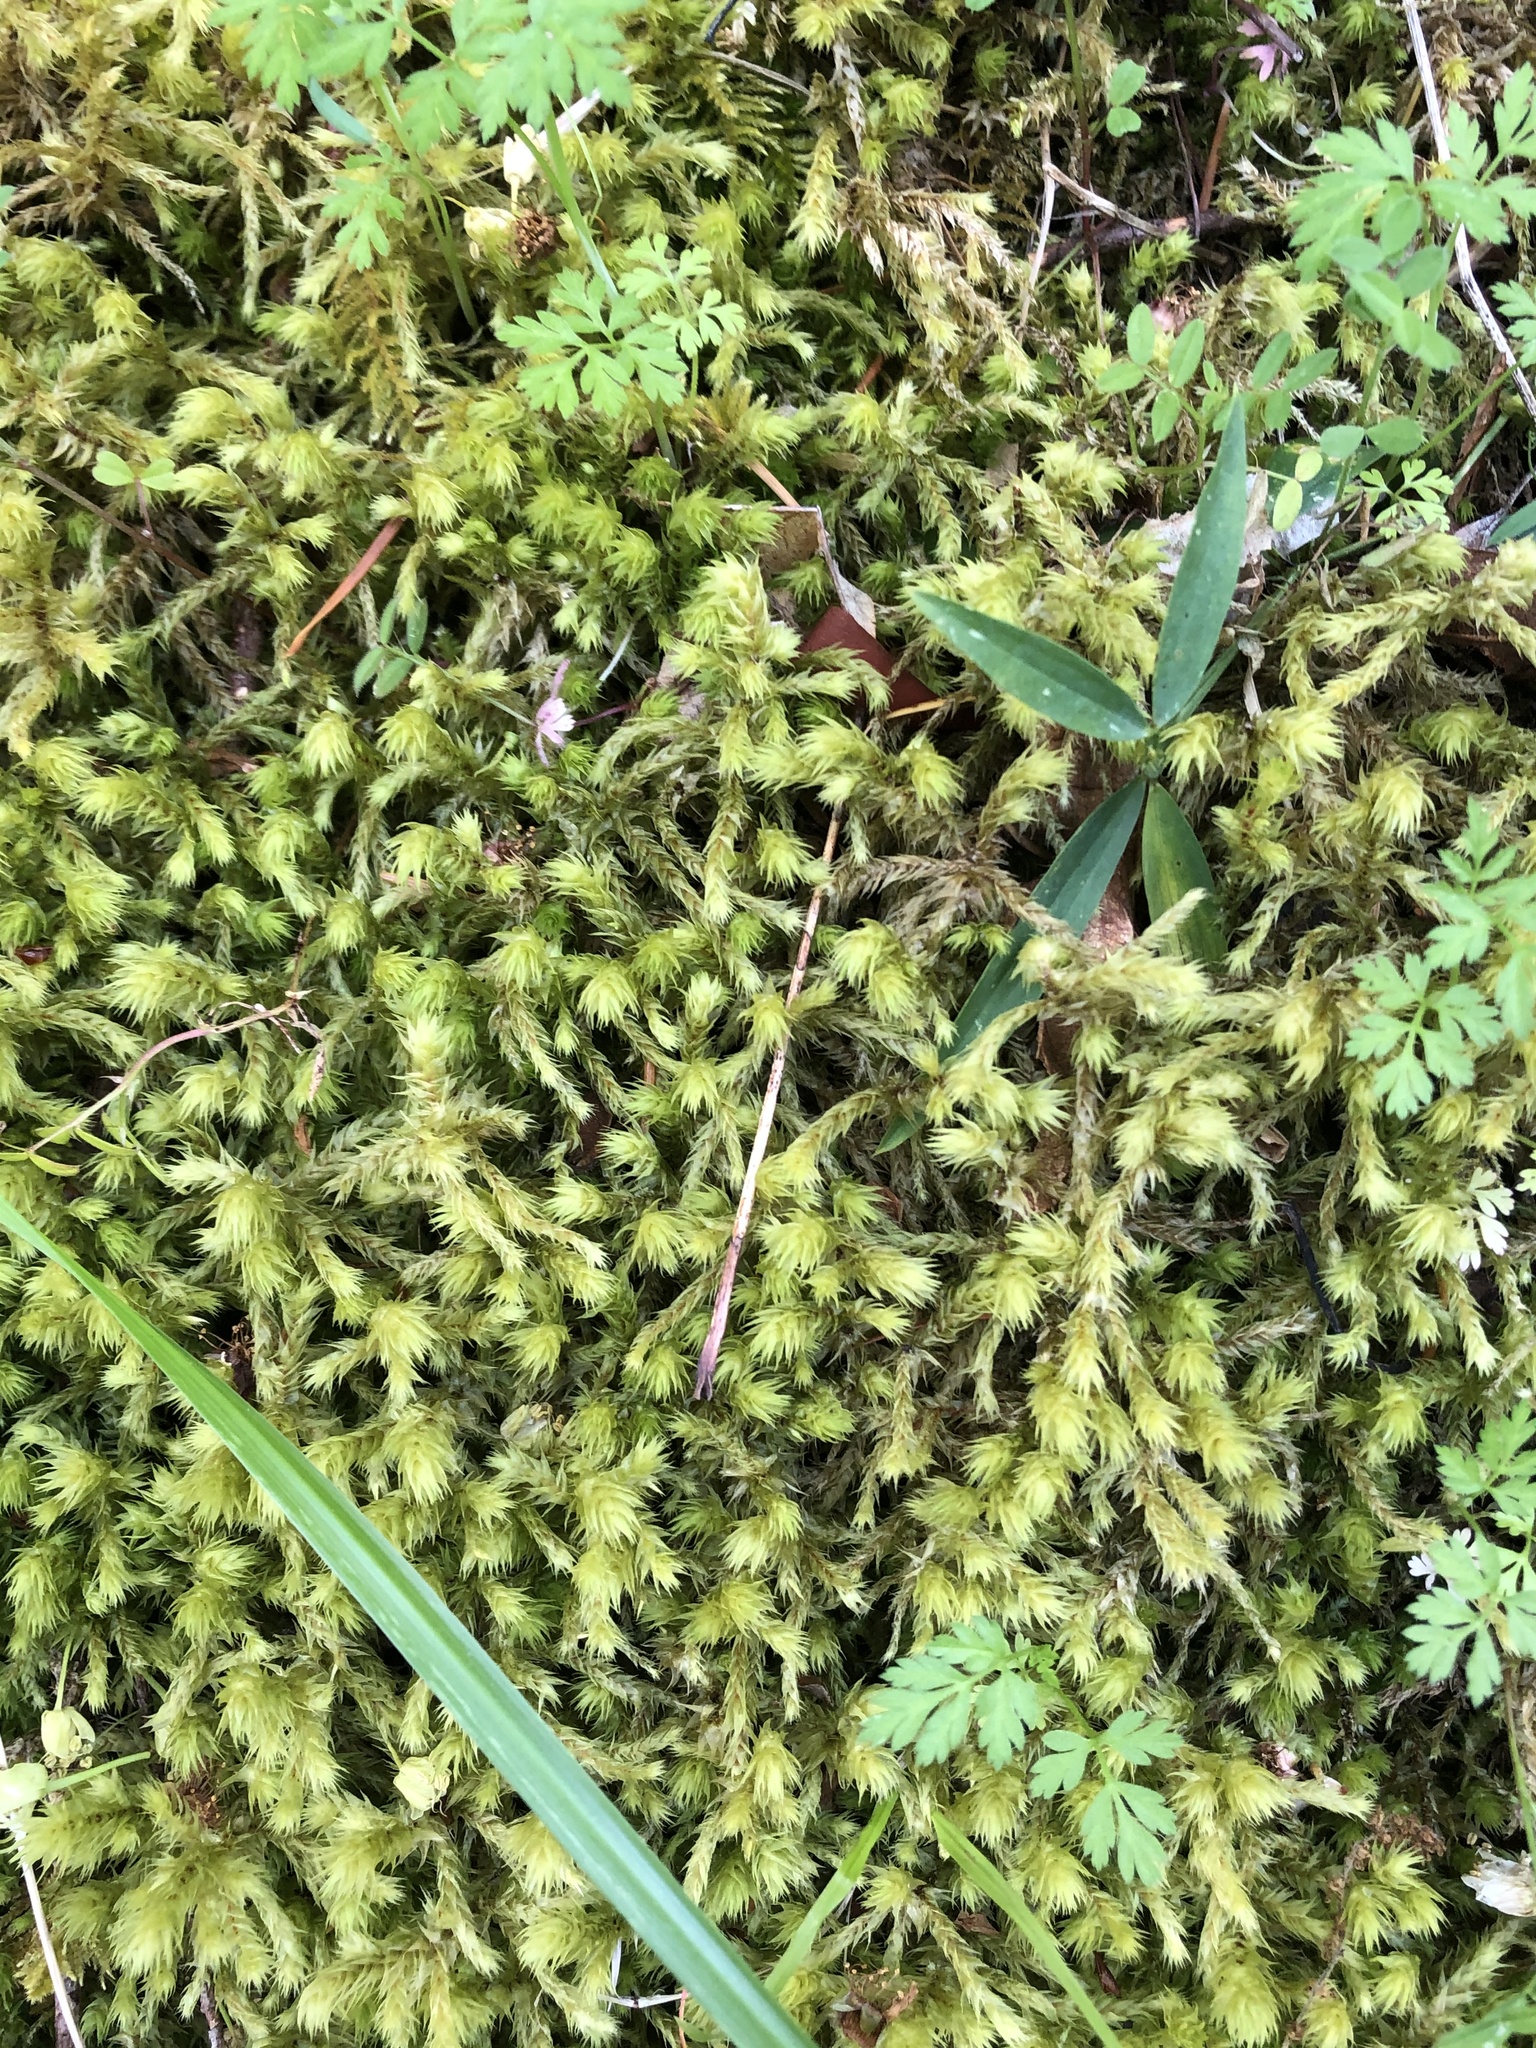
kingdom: Plantae
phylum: Bryophyta
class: Bryopsida
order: Hypnales
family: Hylocomiaceae
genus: Hylocomiadelphus
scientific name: Hylocomiadelphus triquetrus
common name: Rough goose neck moss
